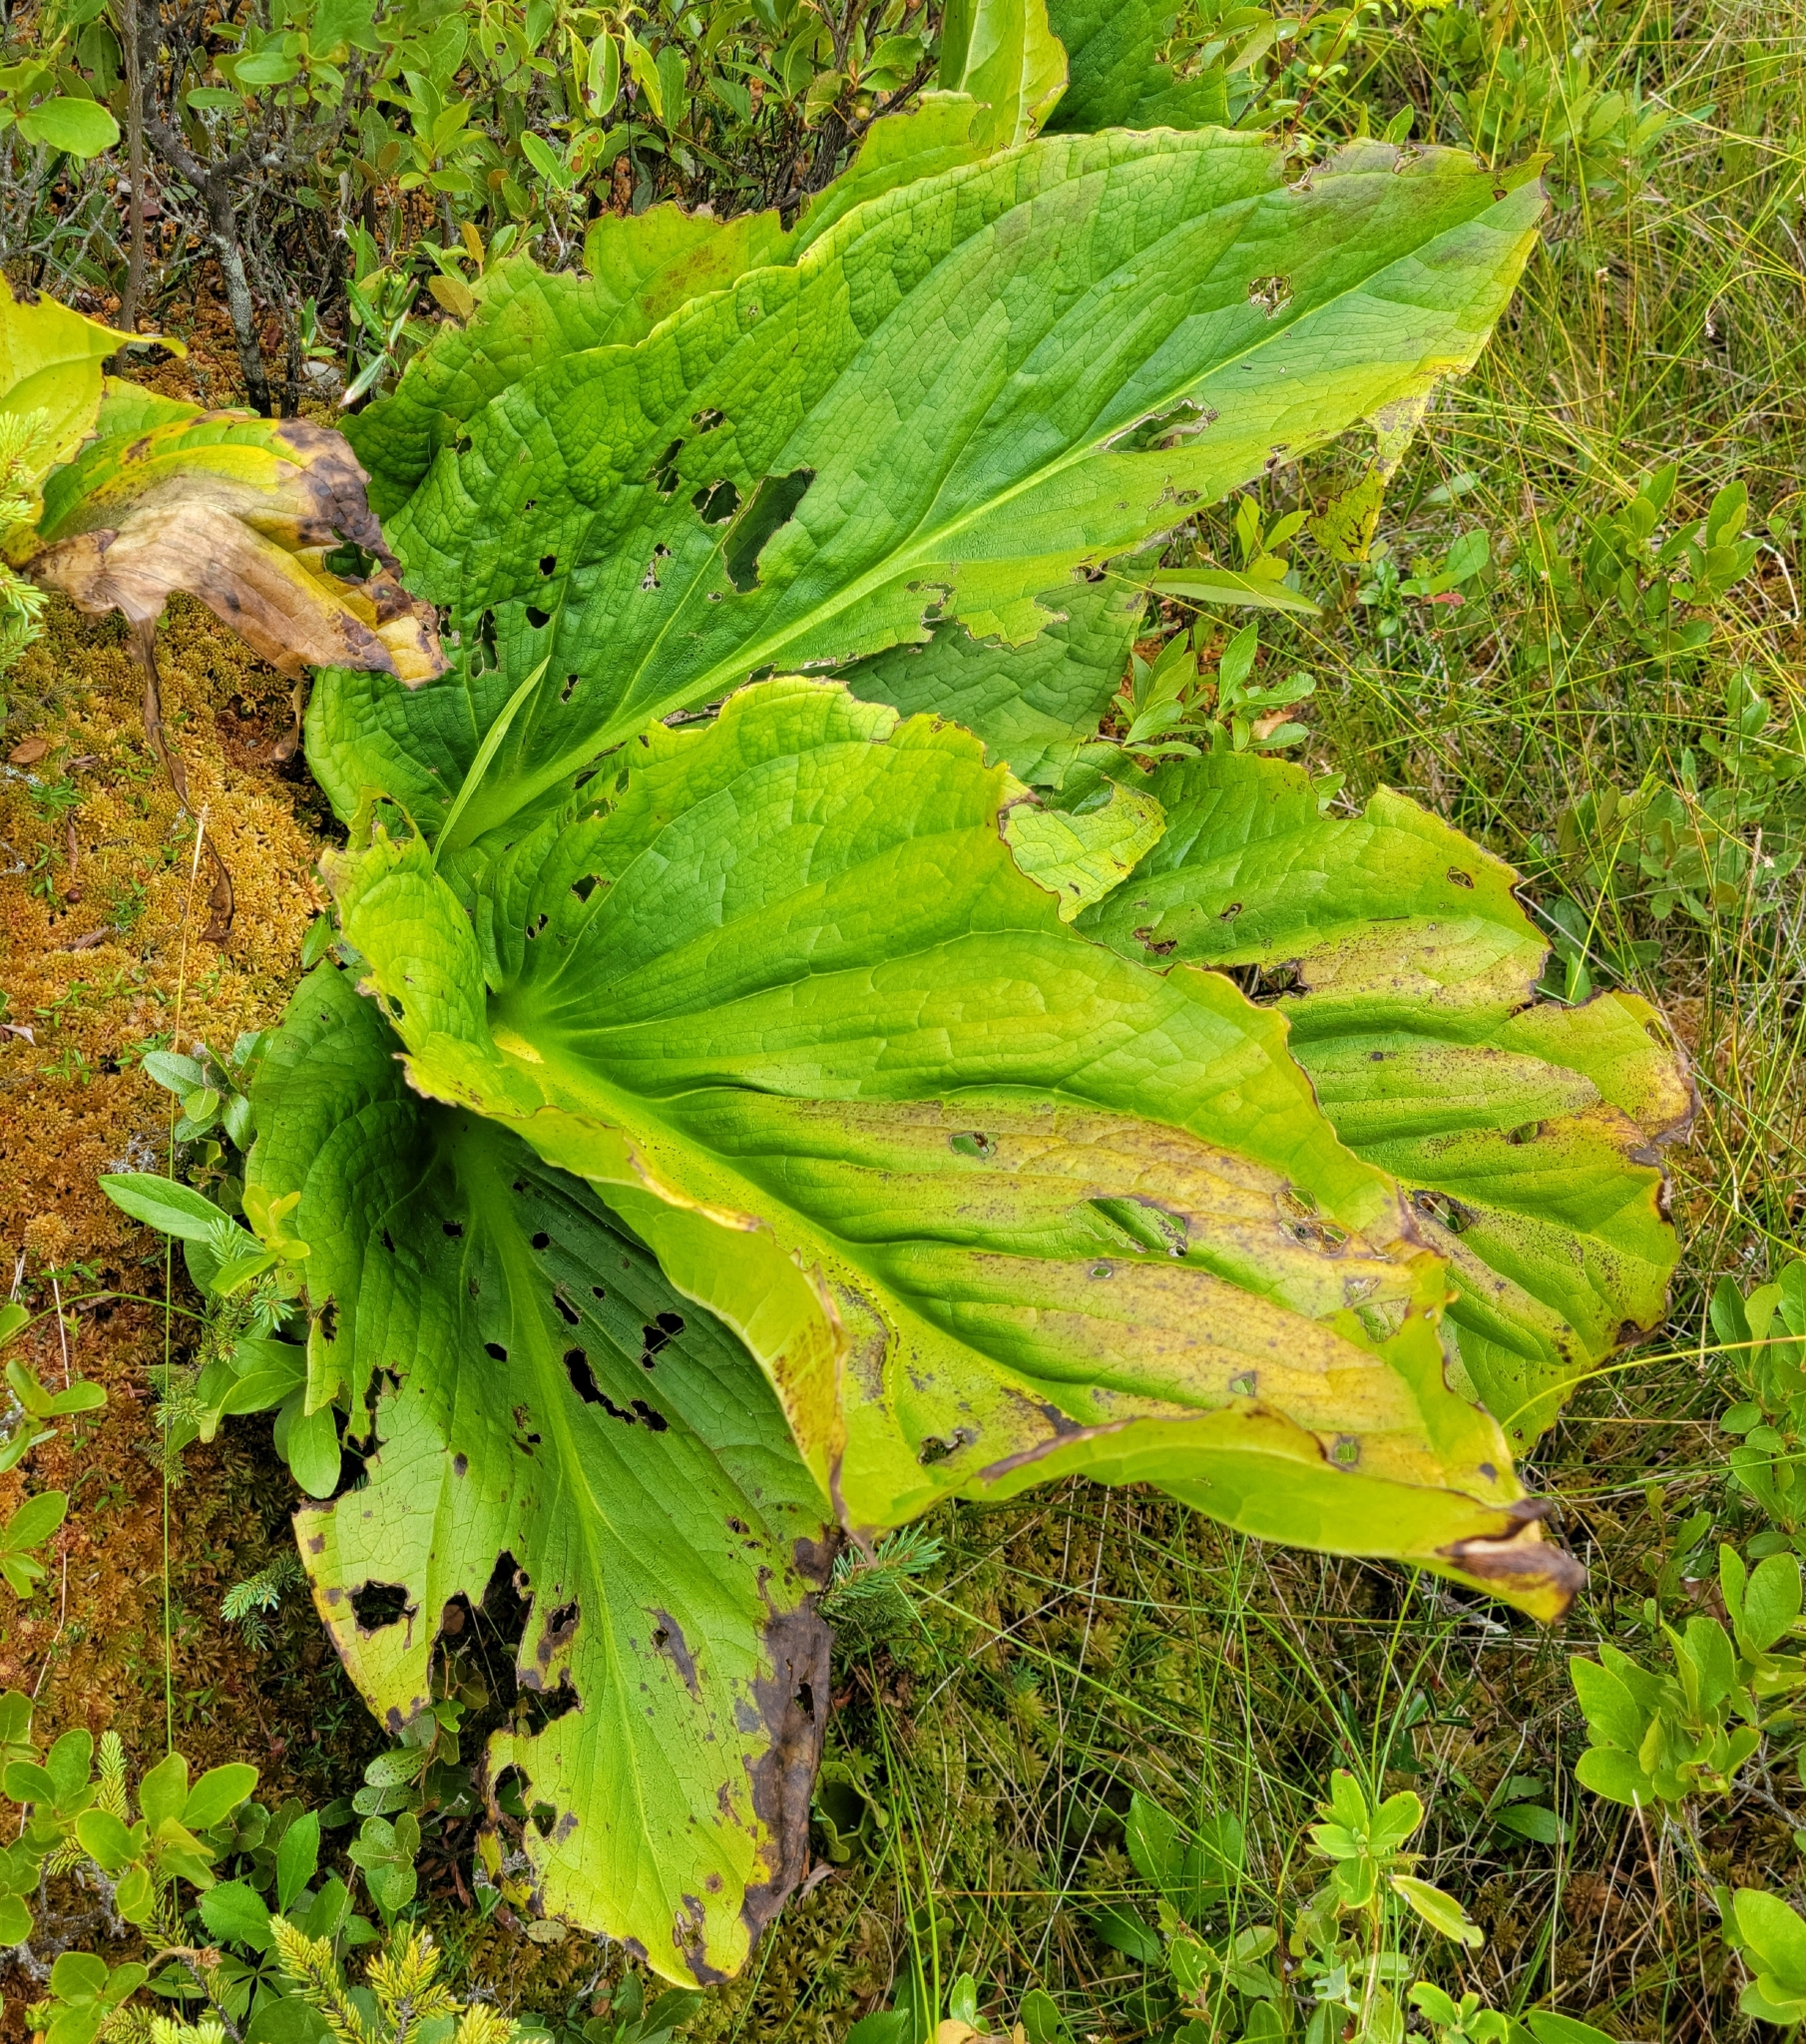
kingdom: Plantae
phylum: Tracheophyta
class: Liliopsida
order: Alismatales
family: Araceae
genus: Symplocarpus
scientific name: Symplocarpus foetidus
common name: Eastern skunk cabbage
